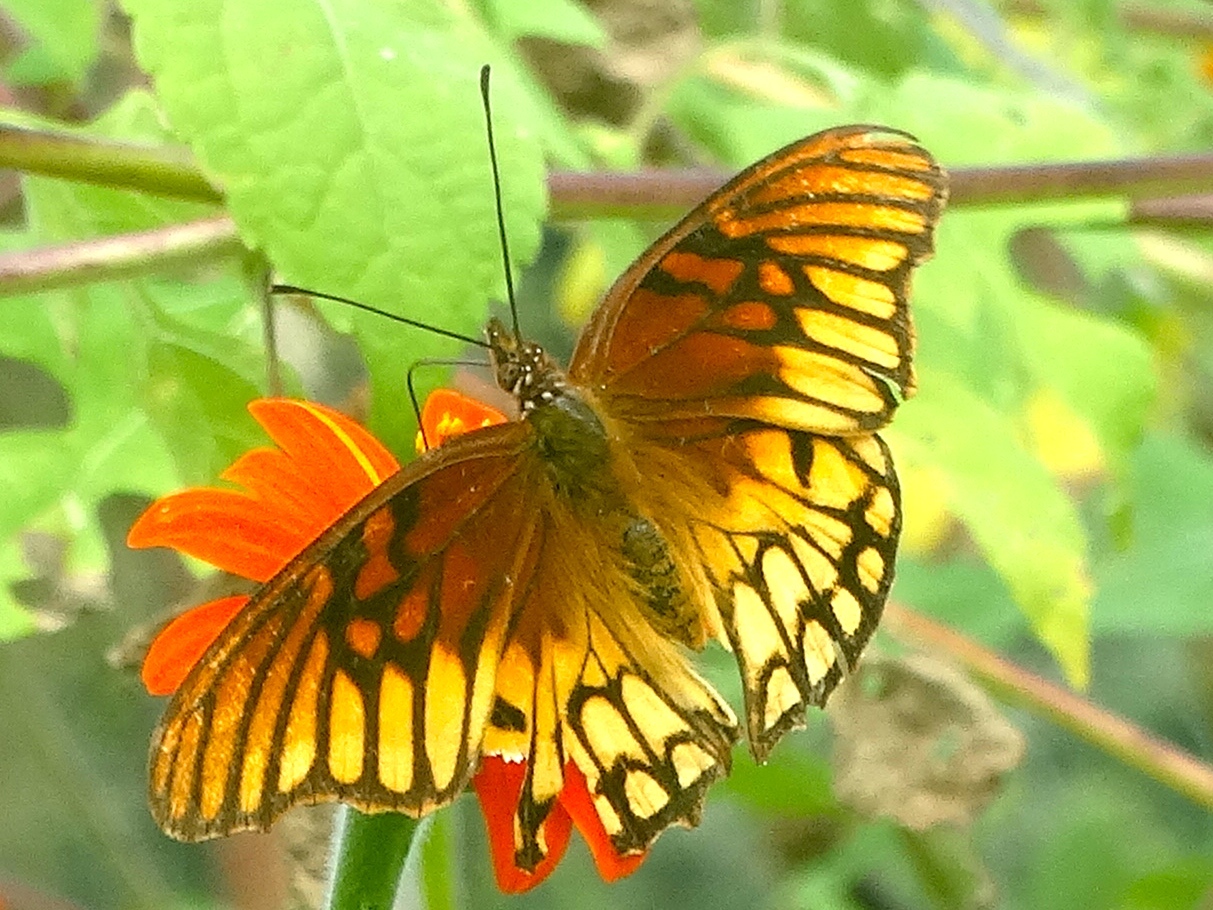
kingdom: Animalia
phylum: Arthropoda
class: Insecta
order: Lepidoptera
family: Nymphalidae
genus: Dione
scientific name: Dione moneta
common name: Mexican silverspot
